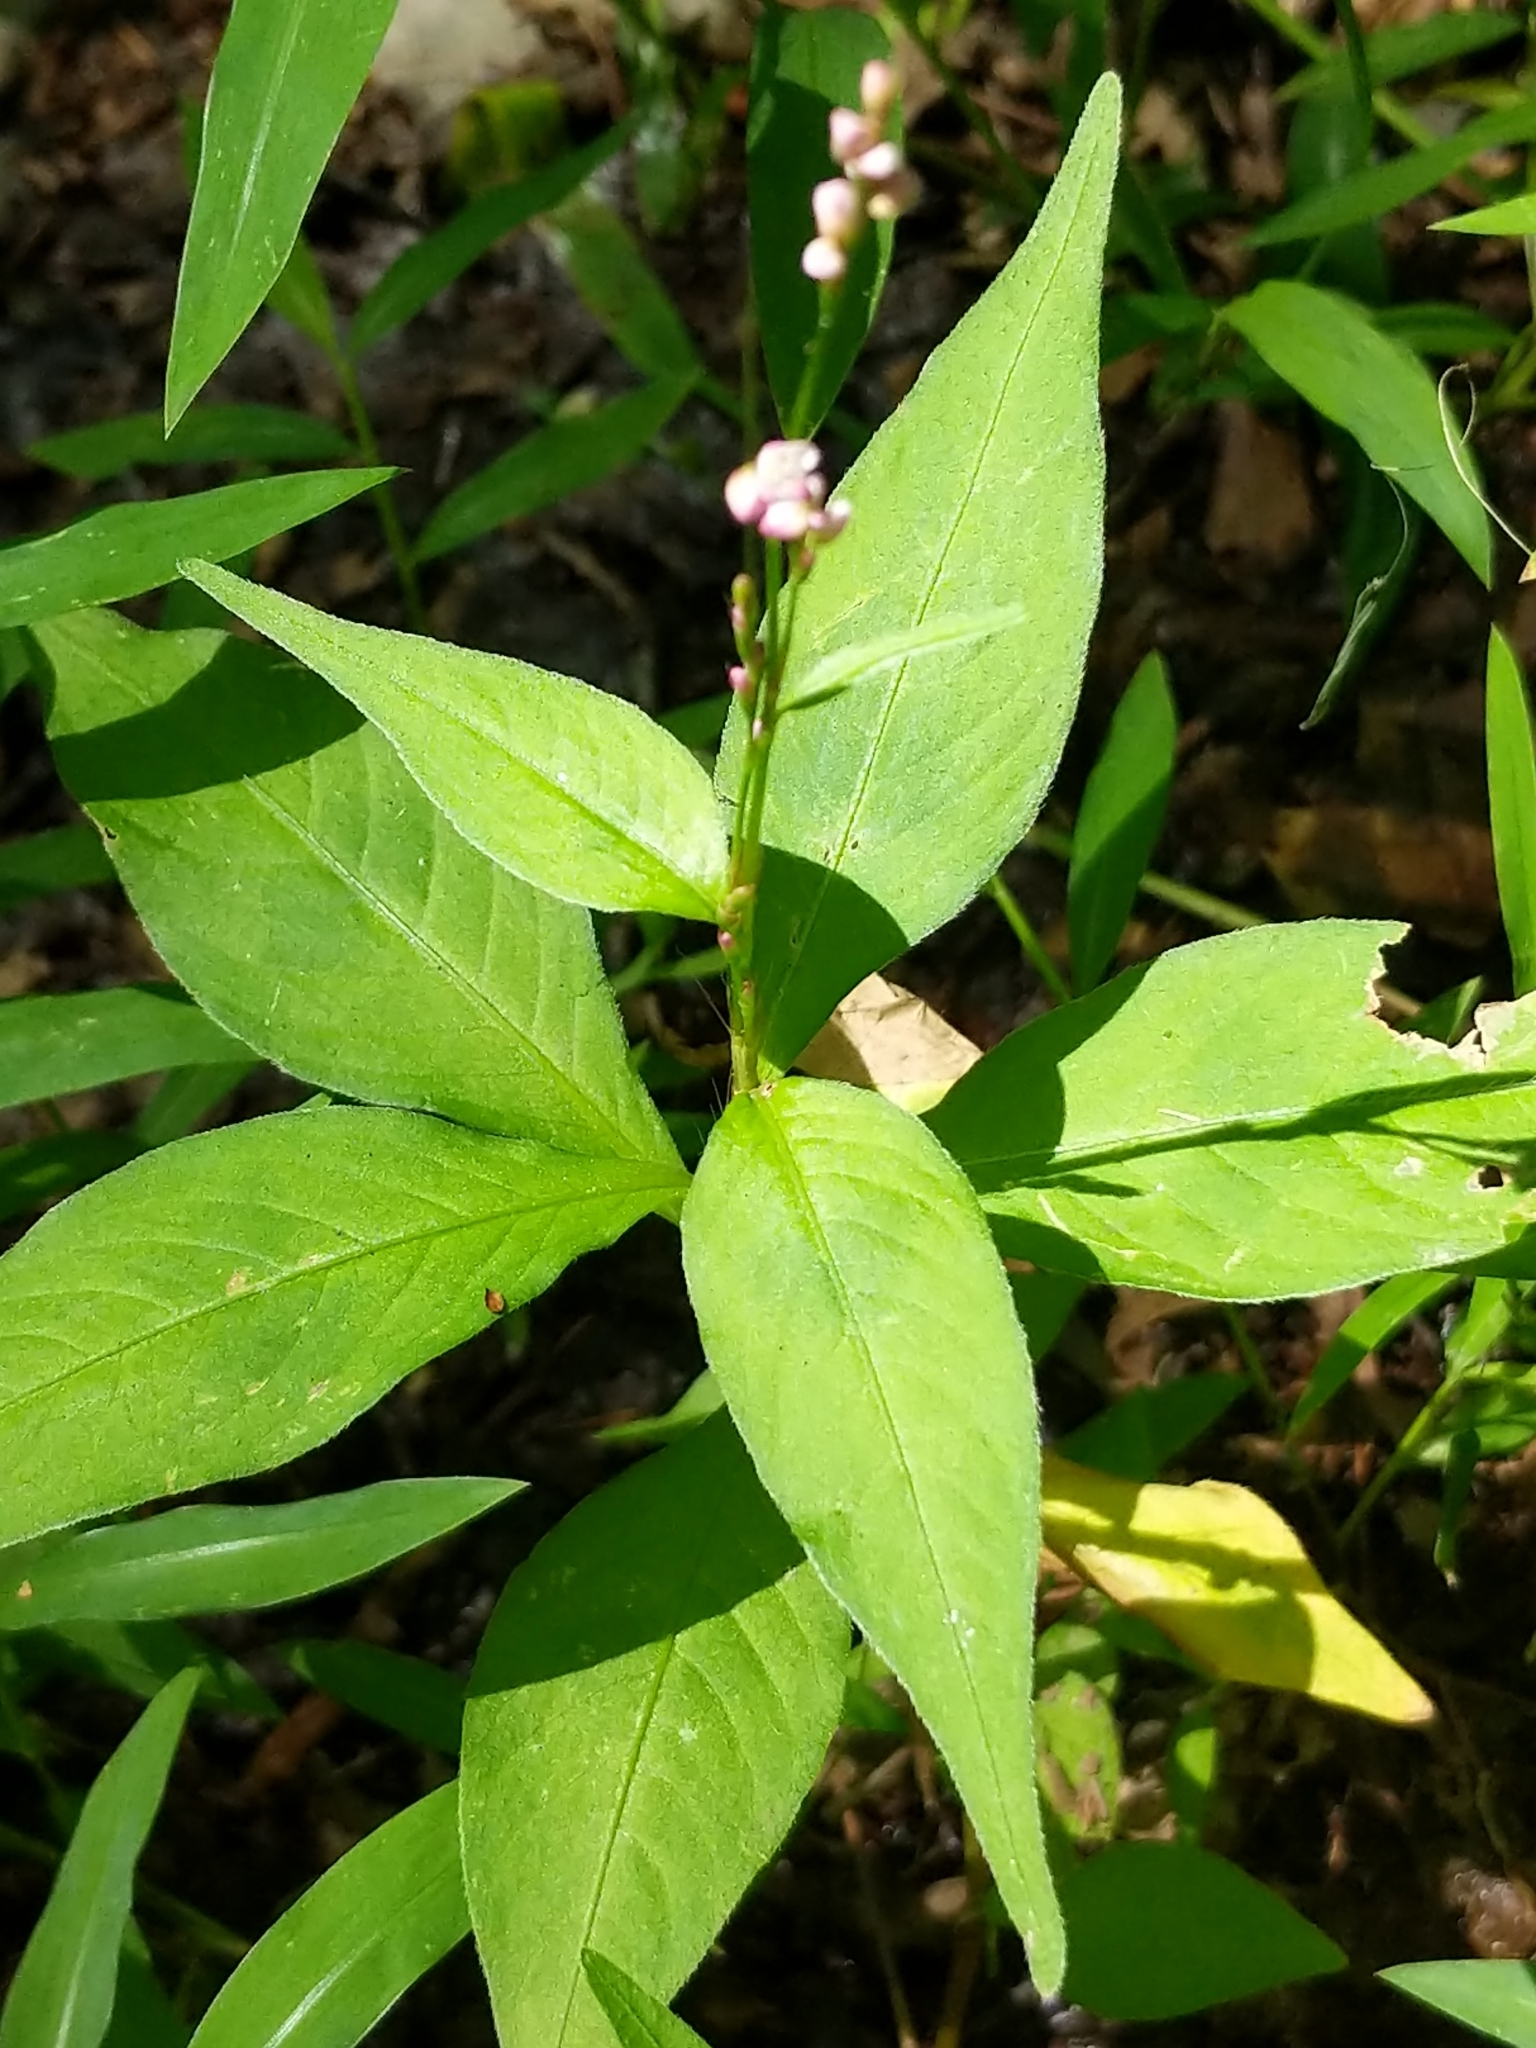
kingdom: Plantae
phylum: Tracheophyta
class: Magnoliopsida
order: Caryophyllales
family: Polygonaceae
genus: Persicaria
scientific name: Persicaria longiseta
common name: Bristly lady's-thumb
